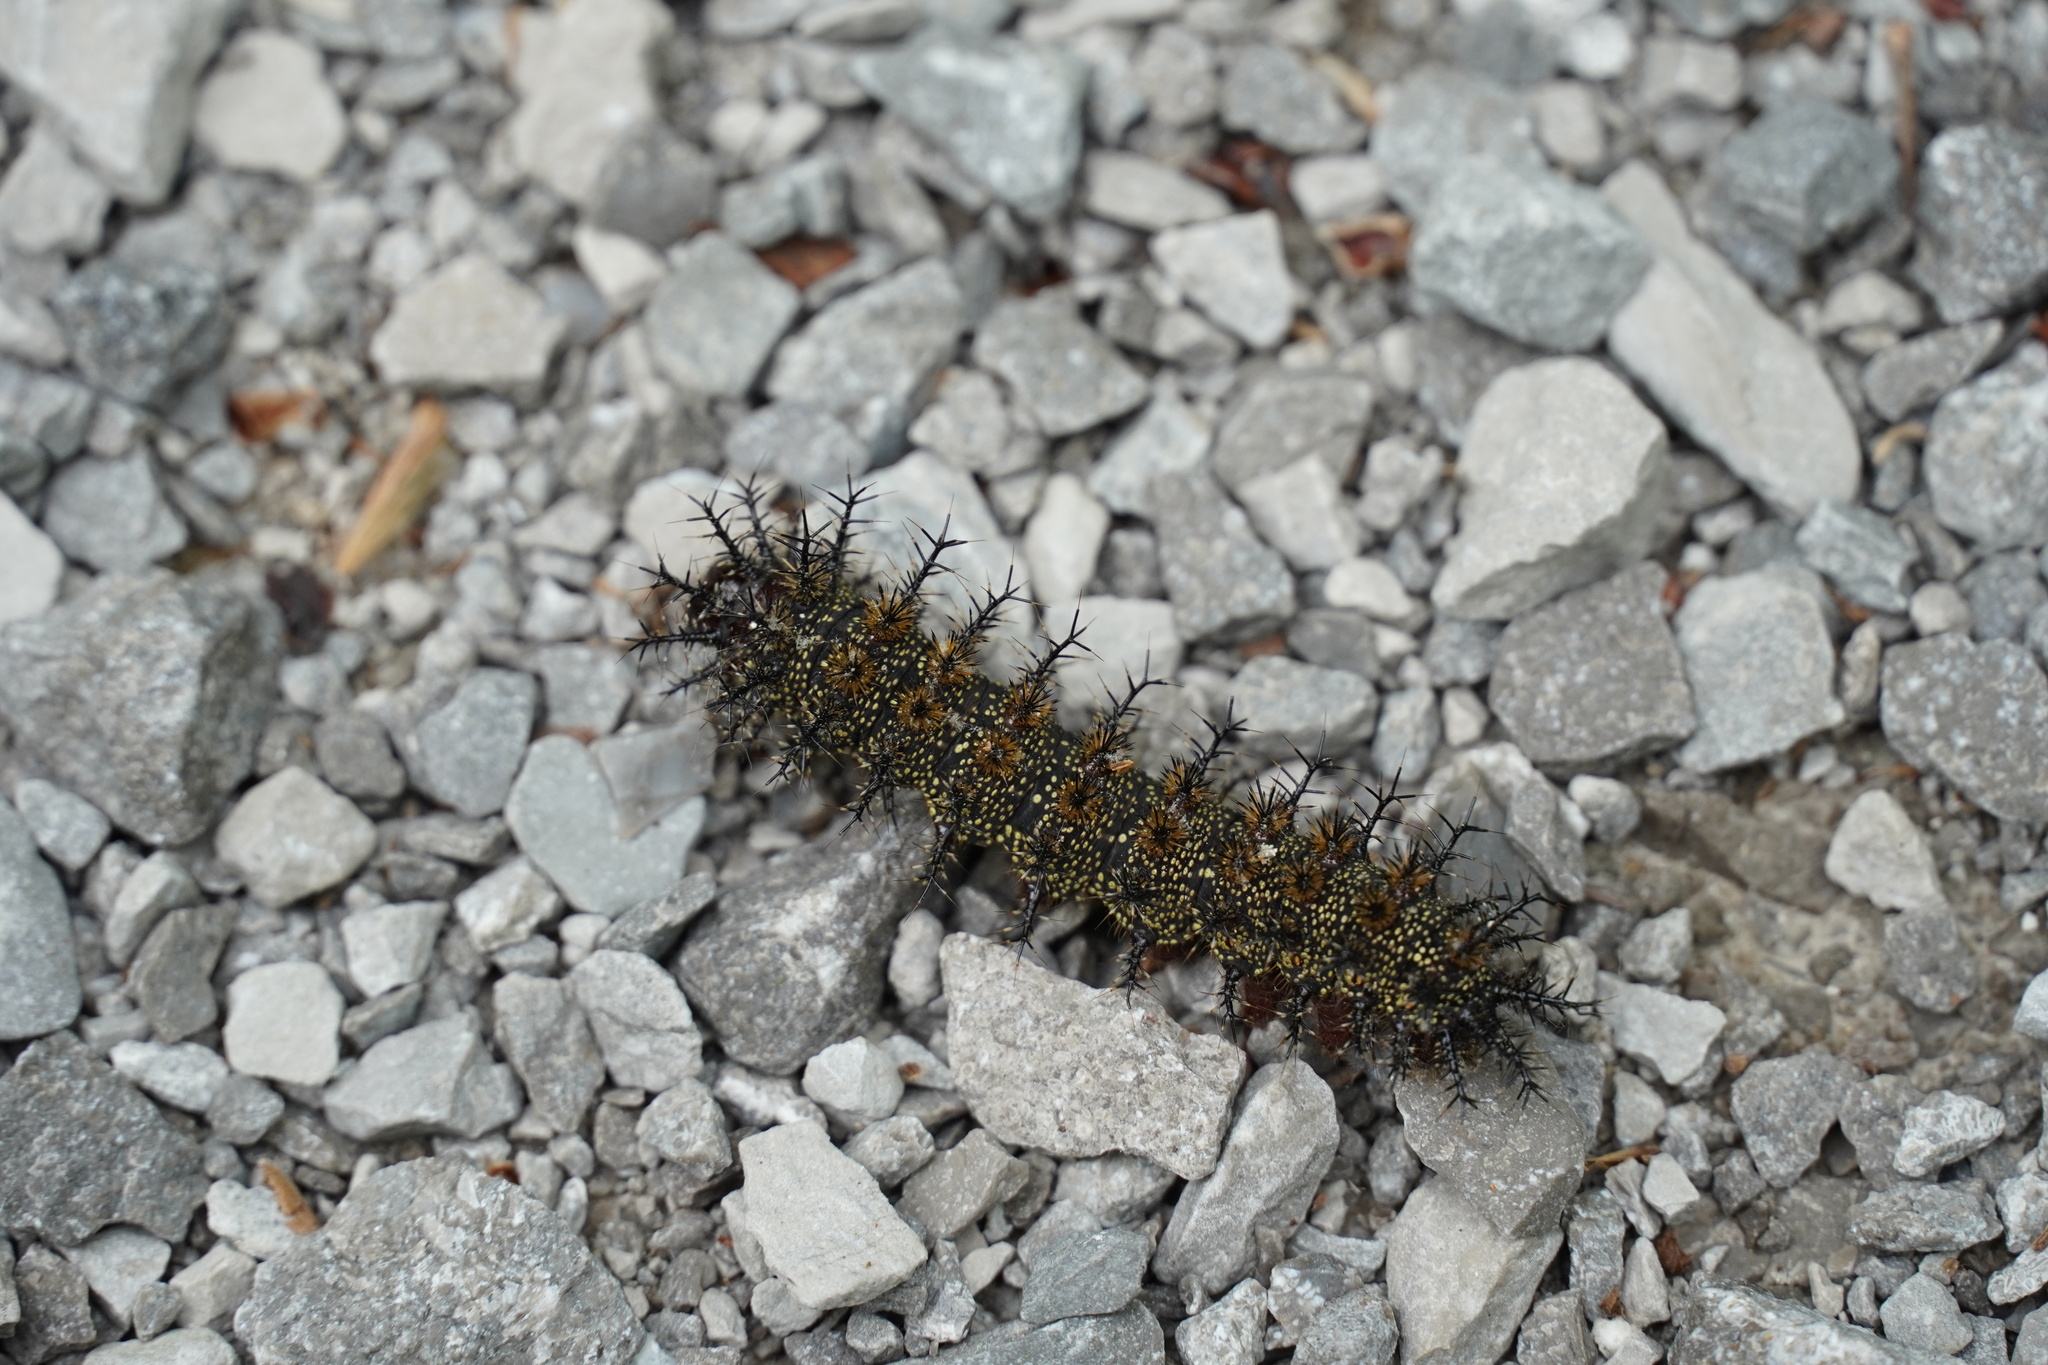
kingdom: Animalia
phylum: Arthropoda
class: Insecta
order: Lepidoptera
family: Saturniidae
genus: Hemileuca
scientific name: Hemileuca maia
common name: Eastern buckmoth
